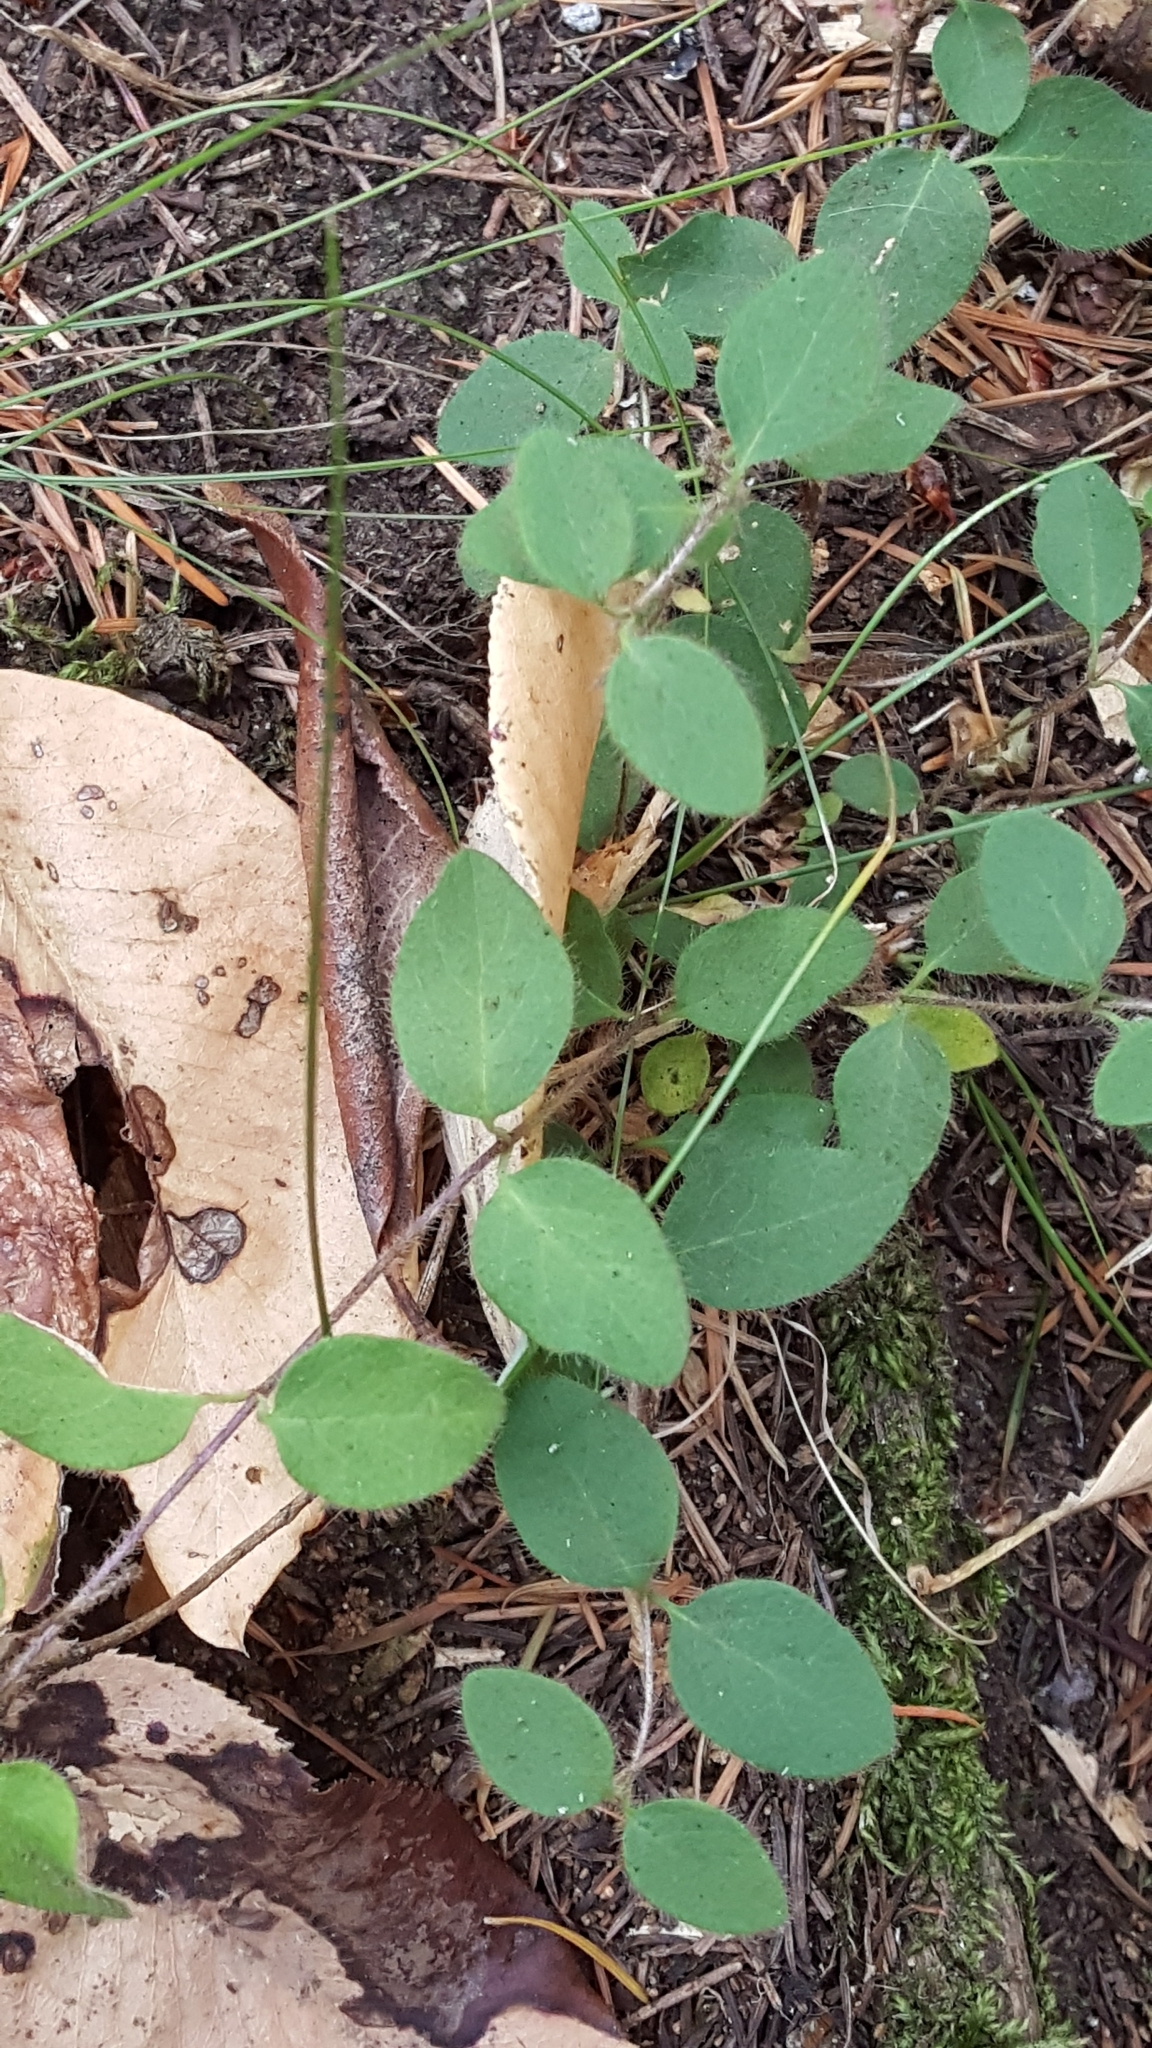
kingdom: Plantae
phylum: Tracheophyta
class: Magnoliopsida
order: Dipsacales
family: Caprifoliaceae
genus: Lonicera
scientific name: Lonicera hispidula
